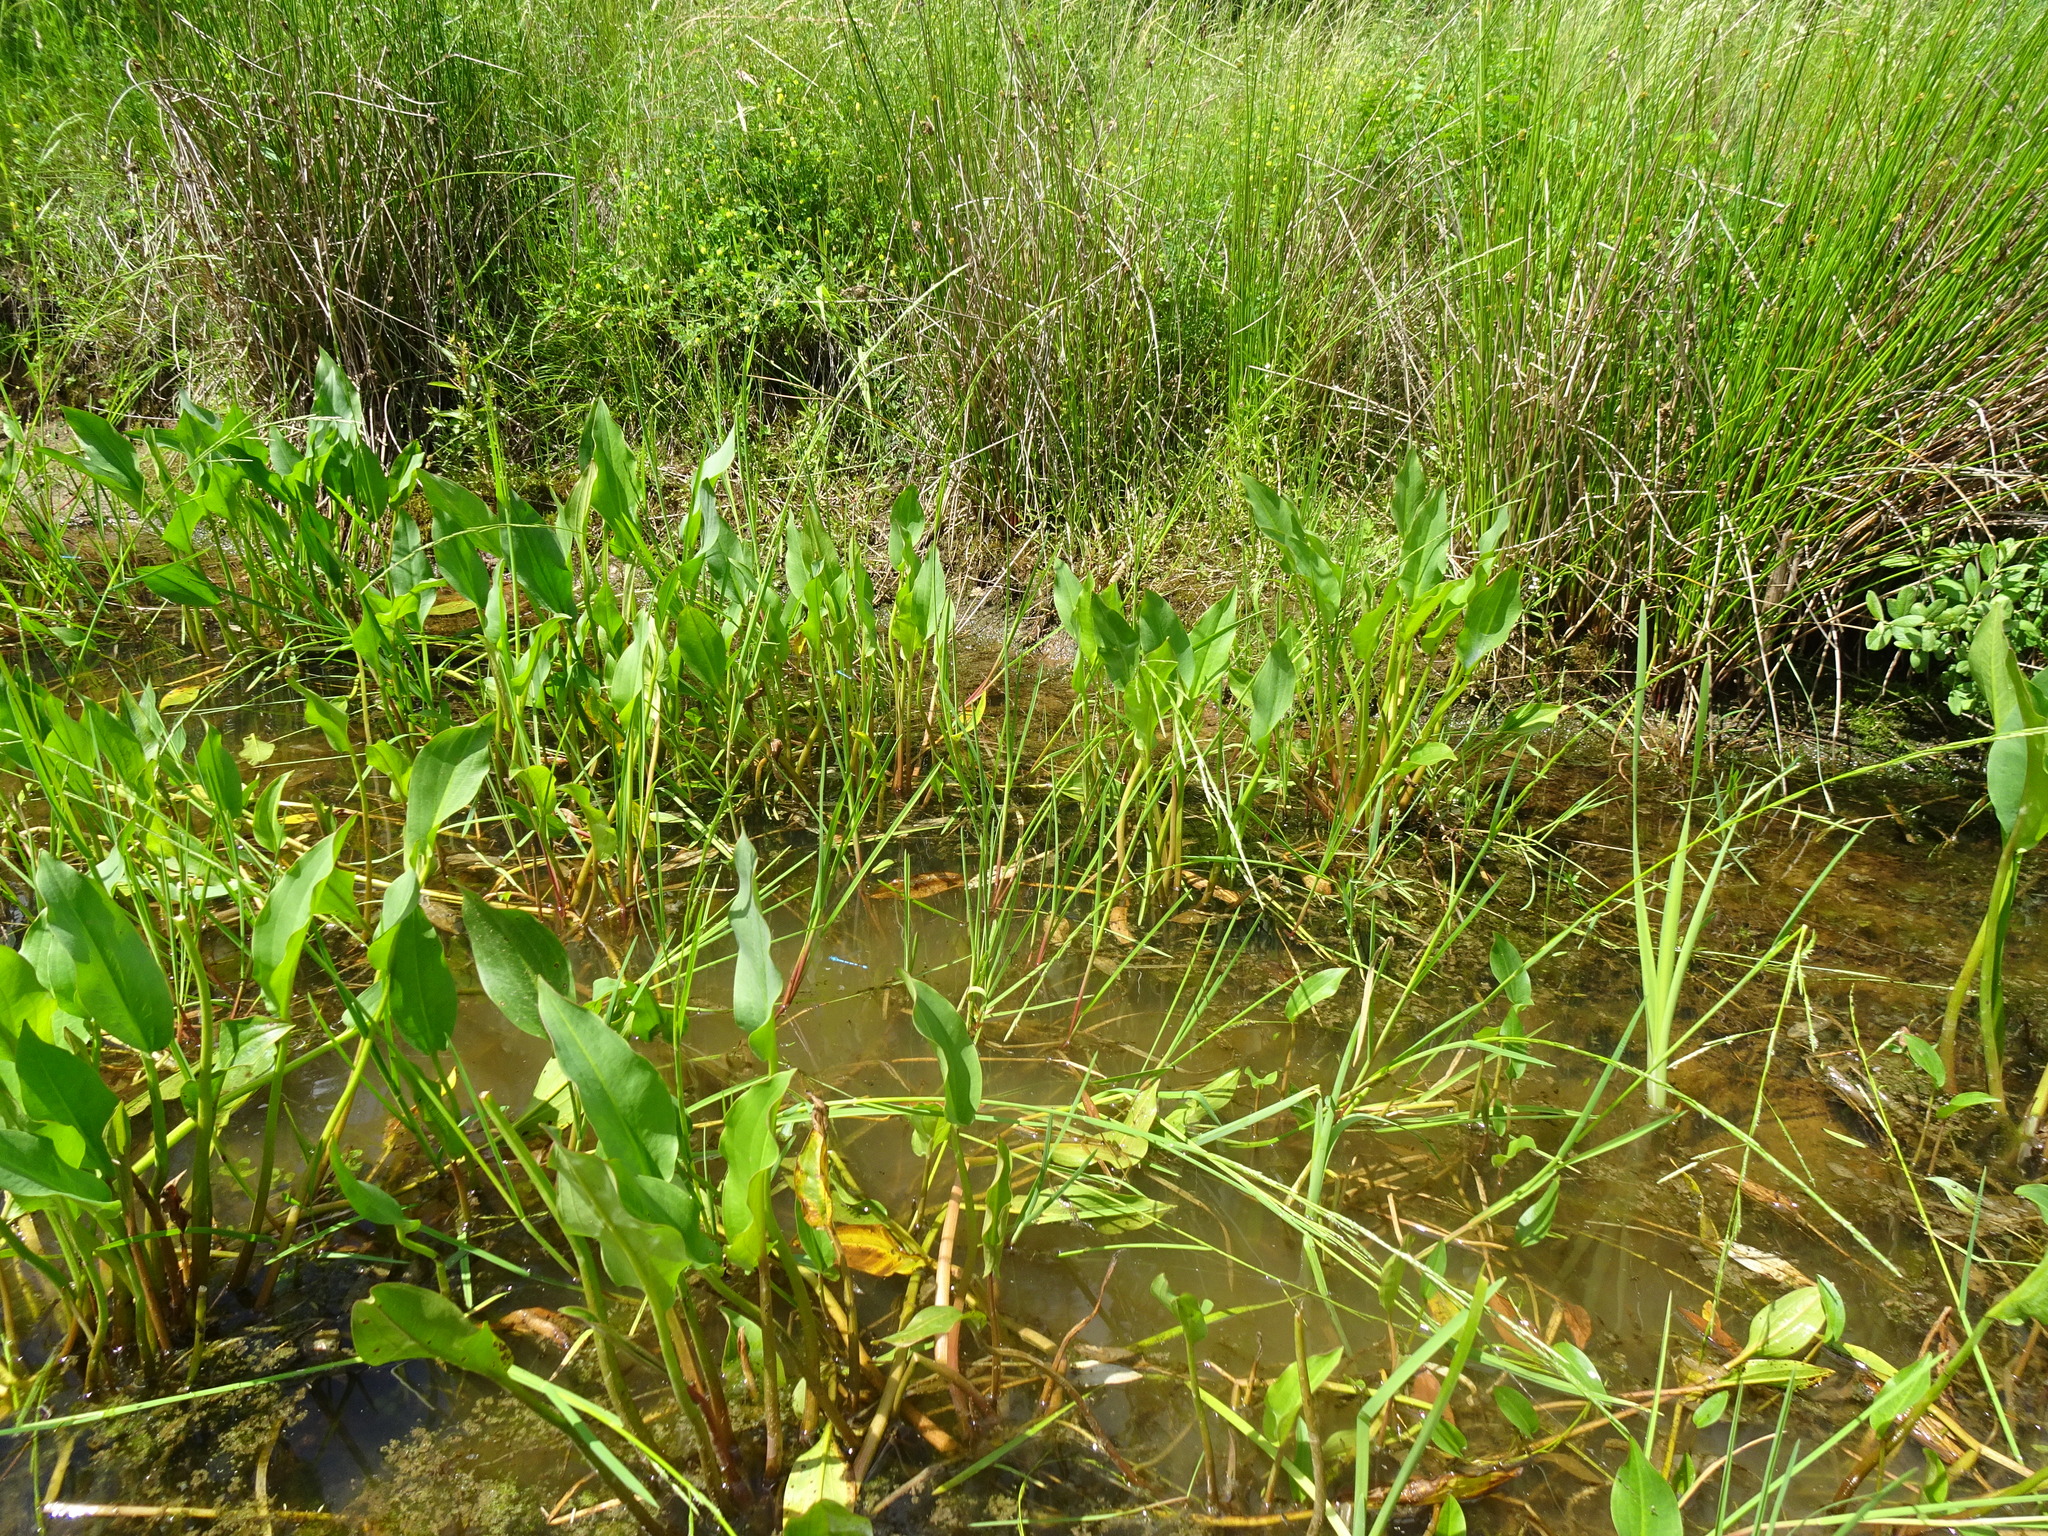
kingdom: Plantae
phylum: Tracheophyta
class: Liliopsida
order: Alismatales
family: Alismataceae
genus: Alisma
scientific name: Alisma plantago-aquatica
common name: Water-plantain
